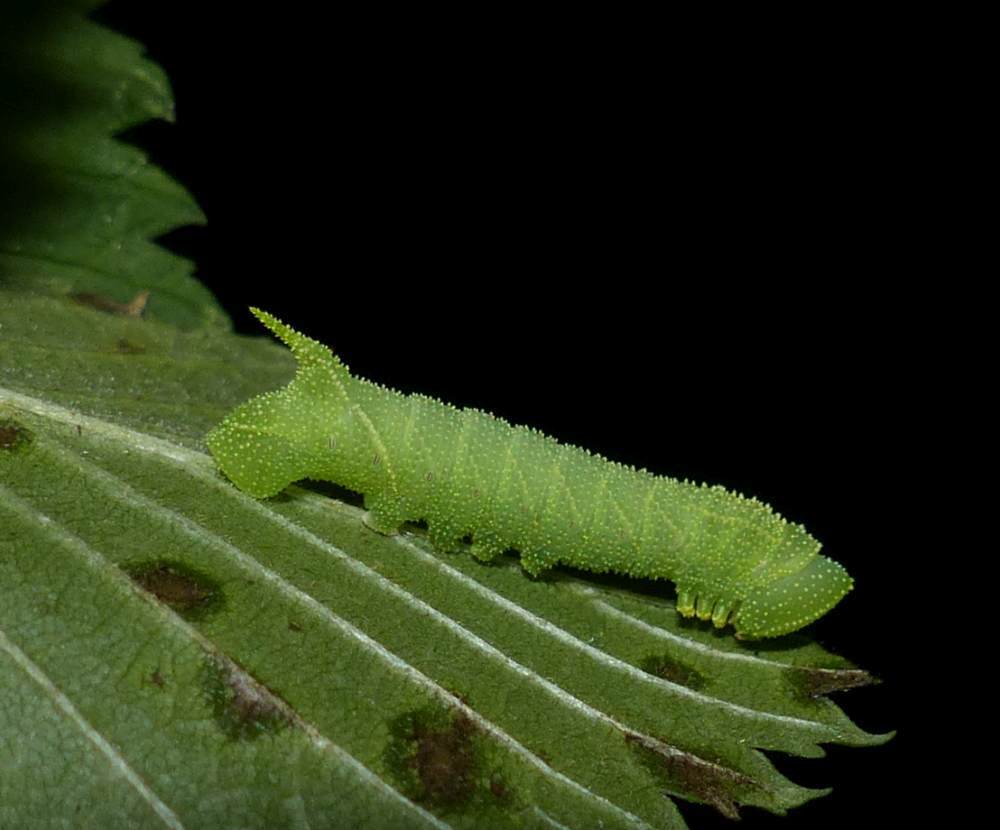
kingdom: Animalia
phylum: Arthropoda
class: Insecta
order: Lepidoptera
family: Sphingidae
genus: Paonias
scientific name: Paonias excaecata
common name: Blind-eyed sphinx
